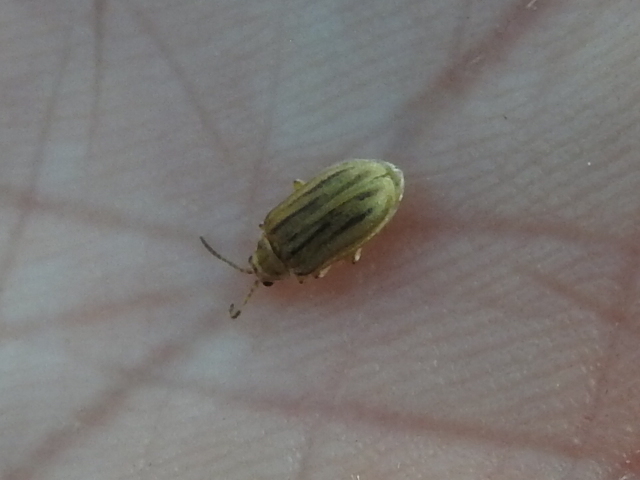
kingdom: Animalia
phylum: Arthropoda
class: Insecta
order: Coleoptera
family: Chrysomelidae
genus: Ophraella
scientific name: Ophraella communa
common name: Ragweed leaf beetle
